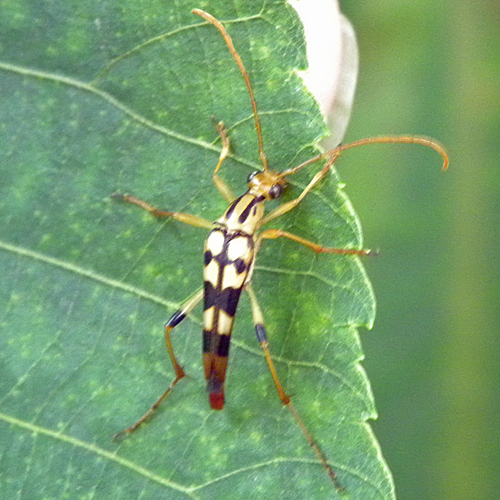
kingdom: Animalia
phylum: Arthropoda
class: Insecta
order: Coleoptera
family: Cerambycidae
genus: Strangalia
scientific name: Strangalia luteicornis
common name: Yellow-horned flower longhorn beetle
